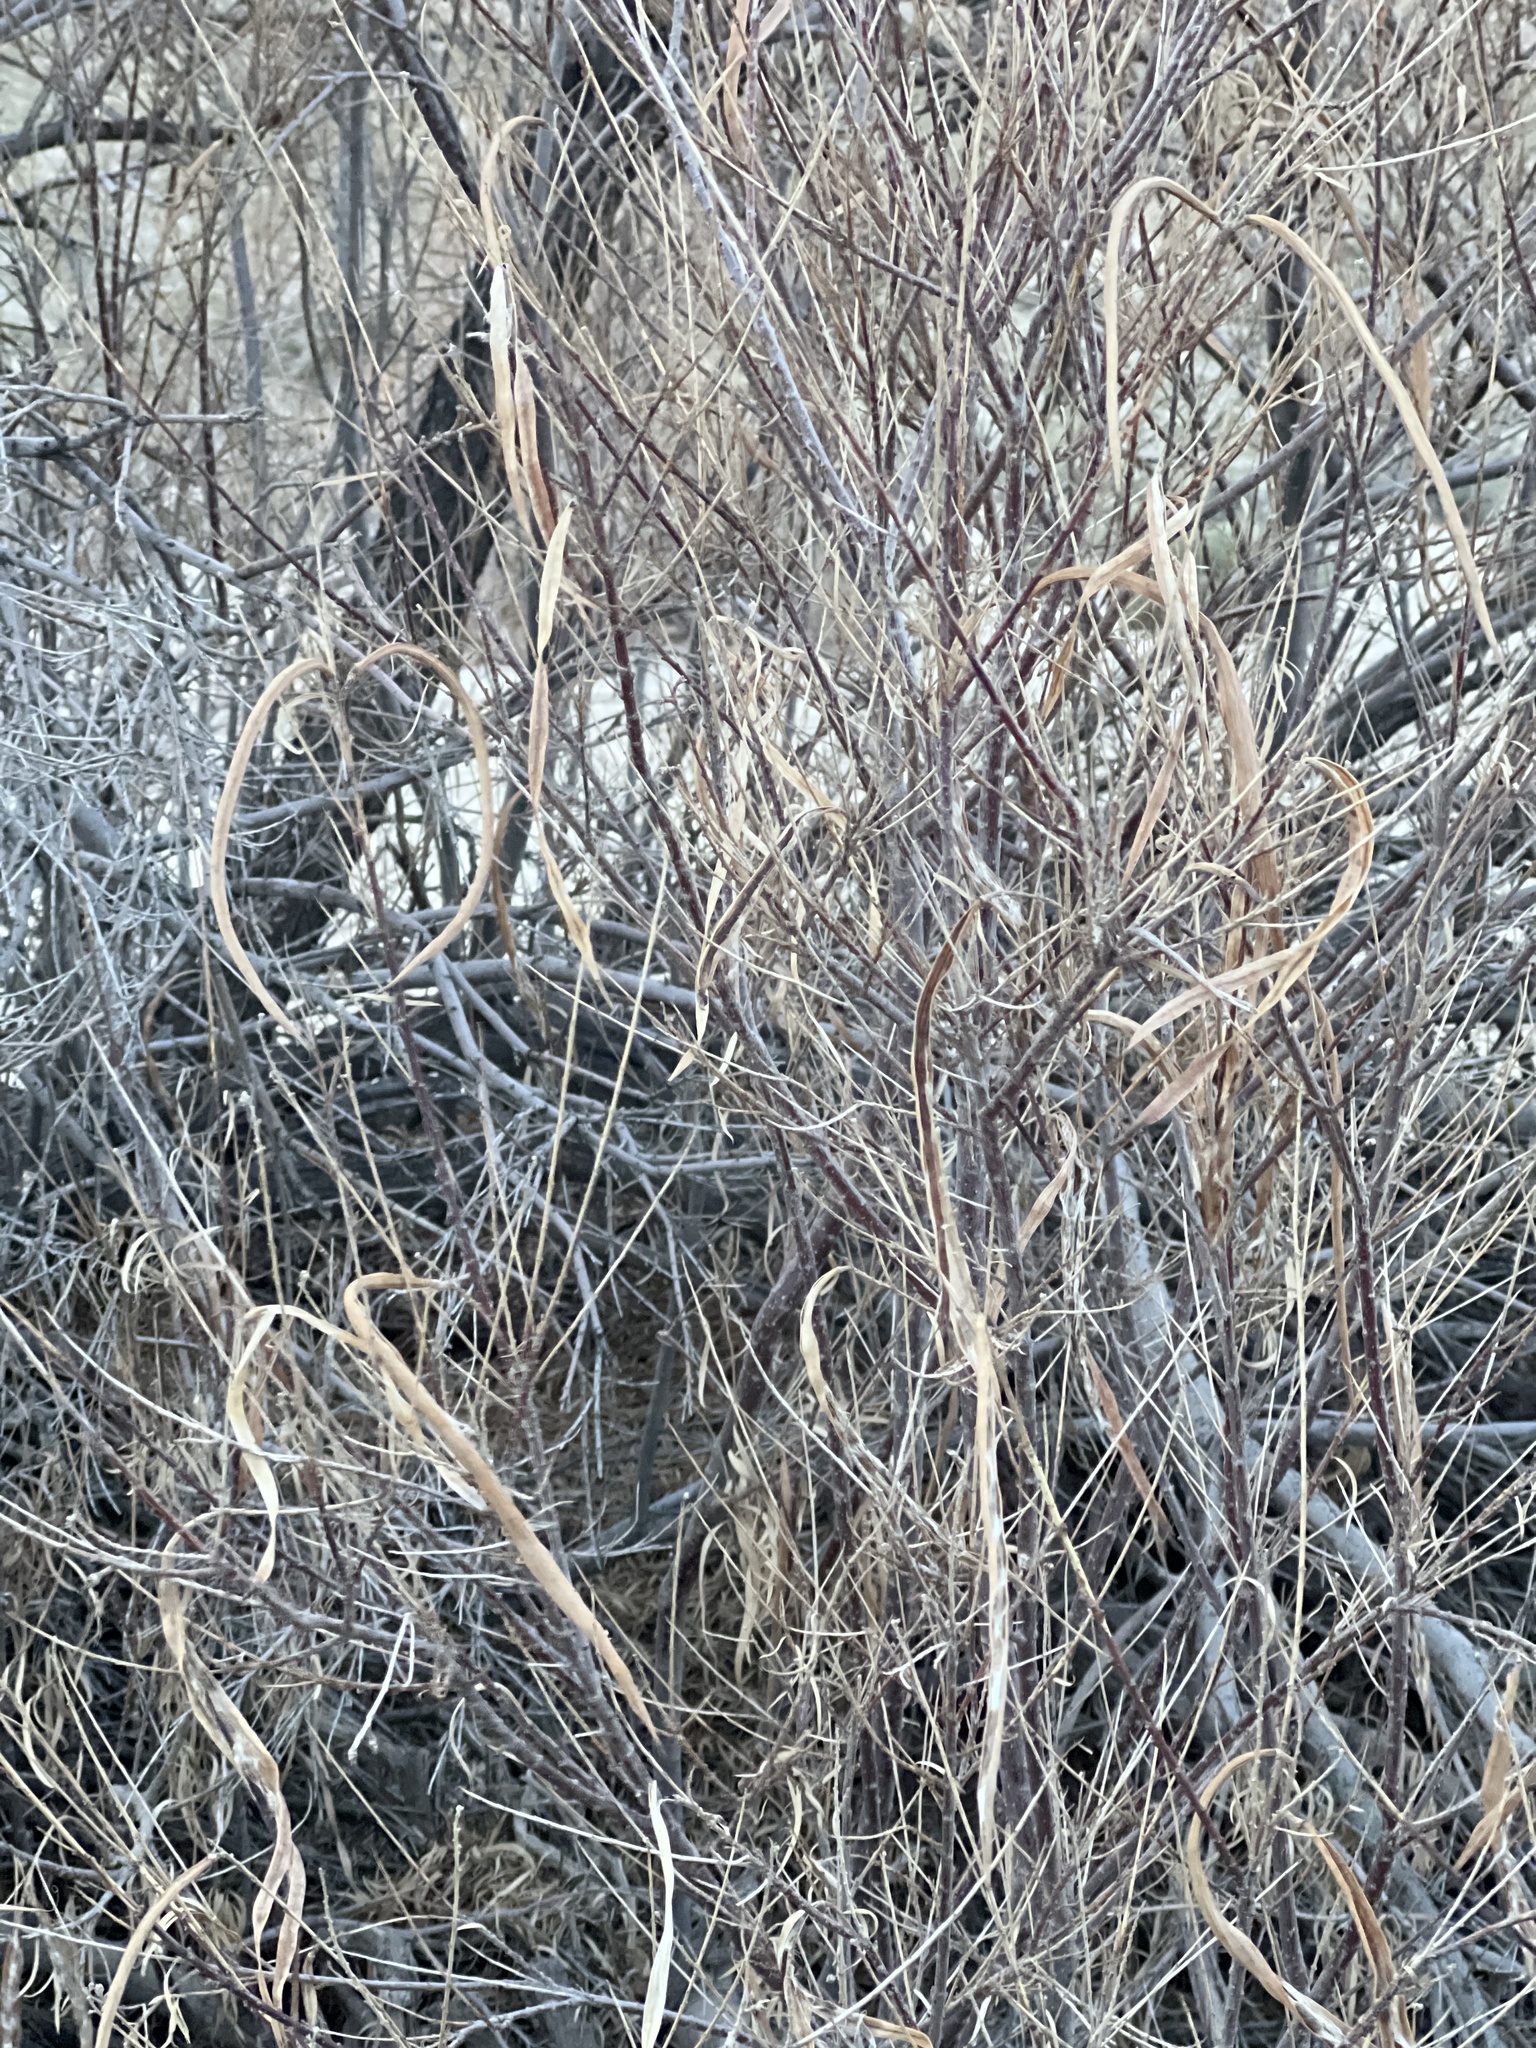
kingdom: Plantae
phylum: Tracheophyta
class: Magnoliopsida
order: Lamiales
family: Bignoniaceae
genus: Chilopsis
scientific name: Chilopsis linearis
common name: Desert-willow
